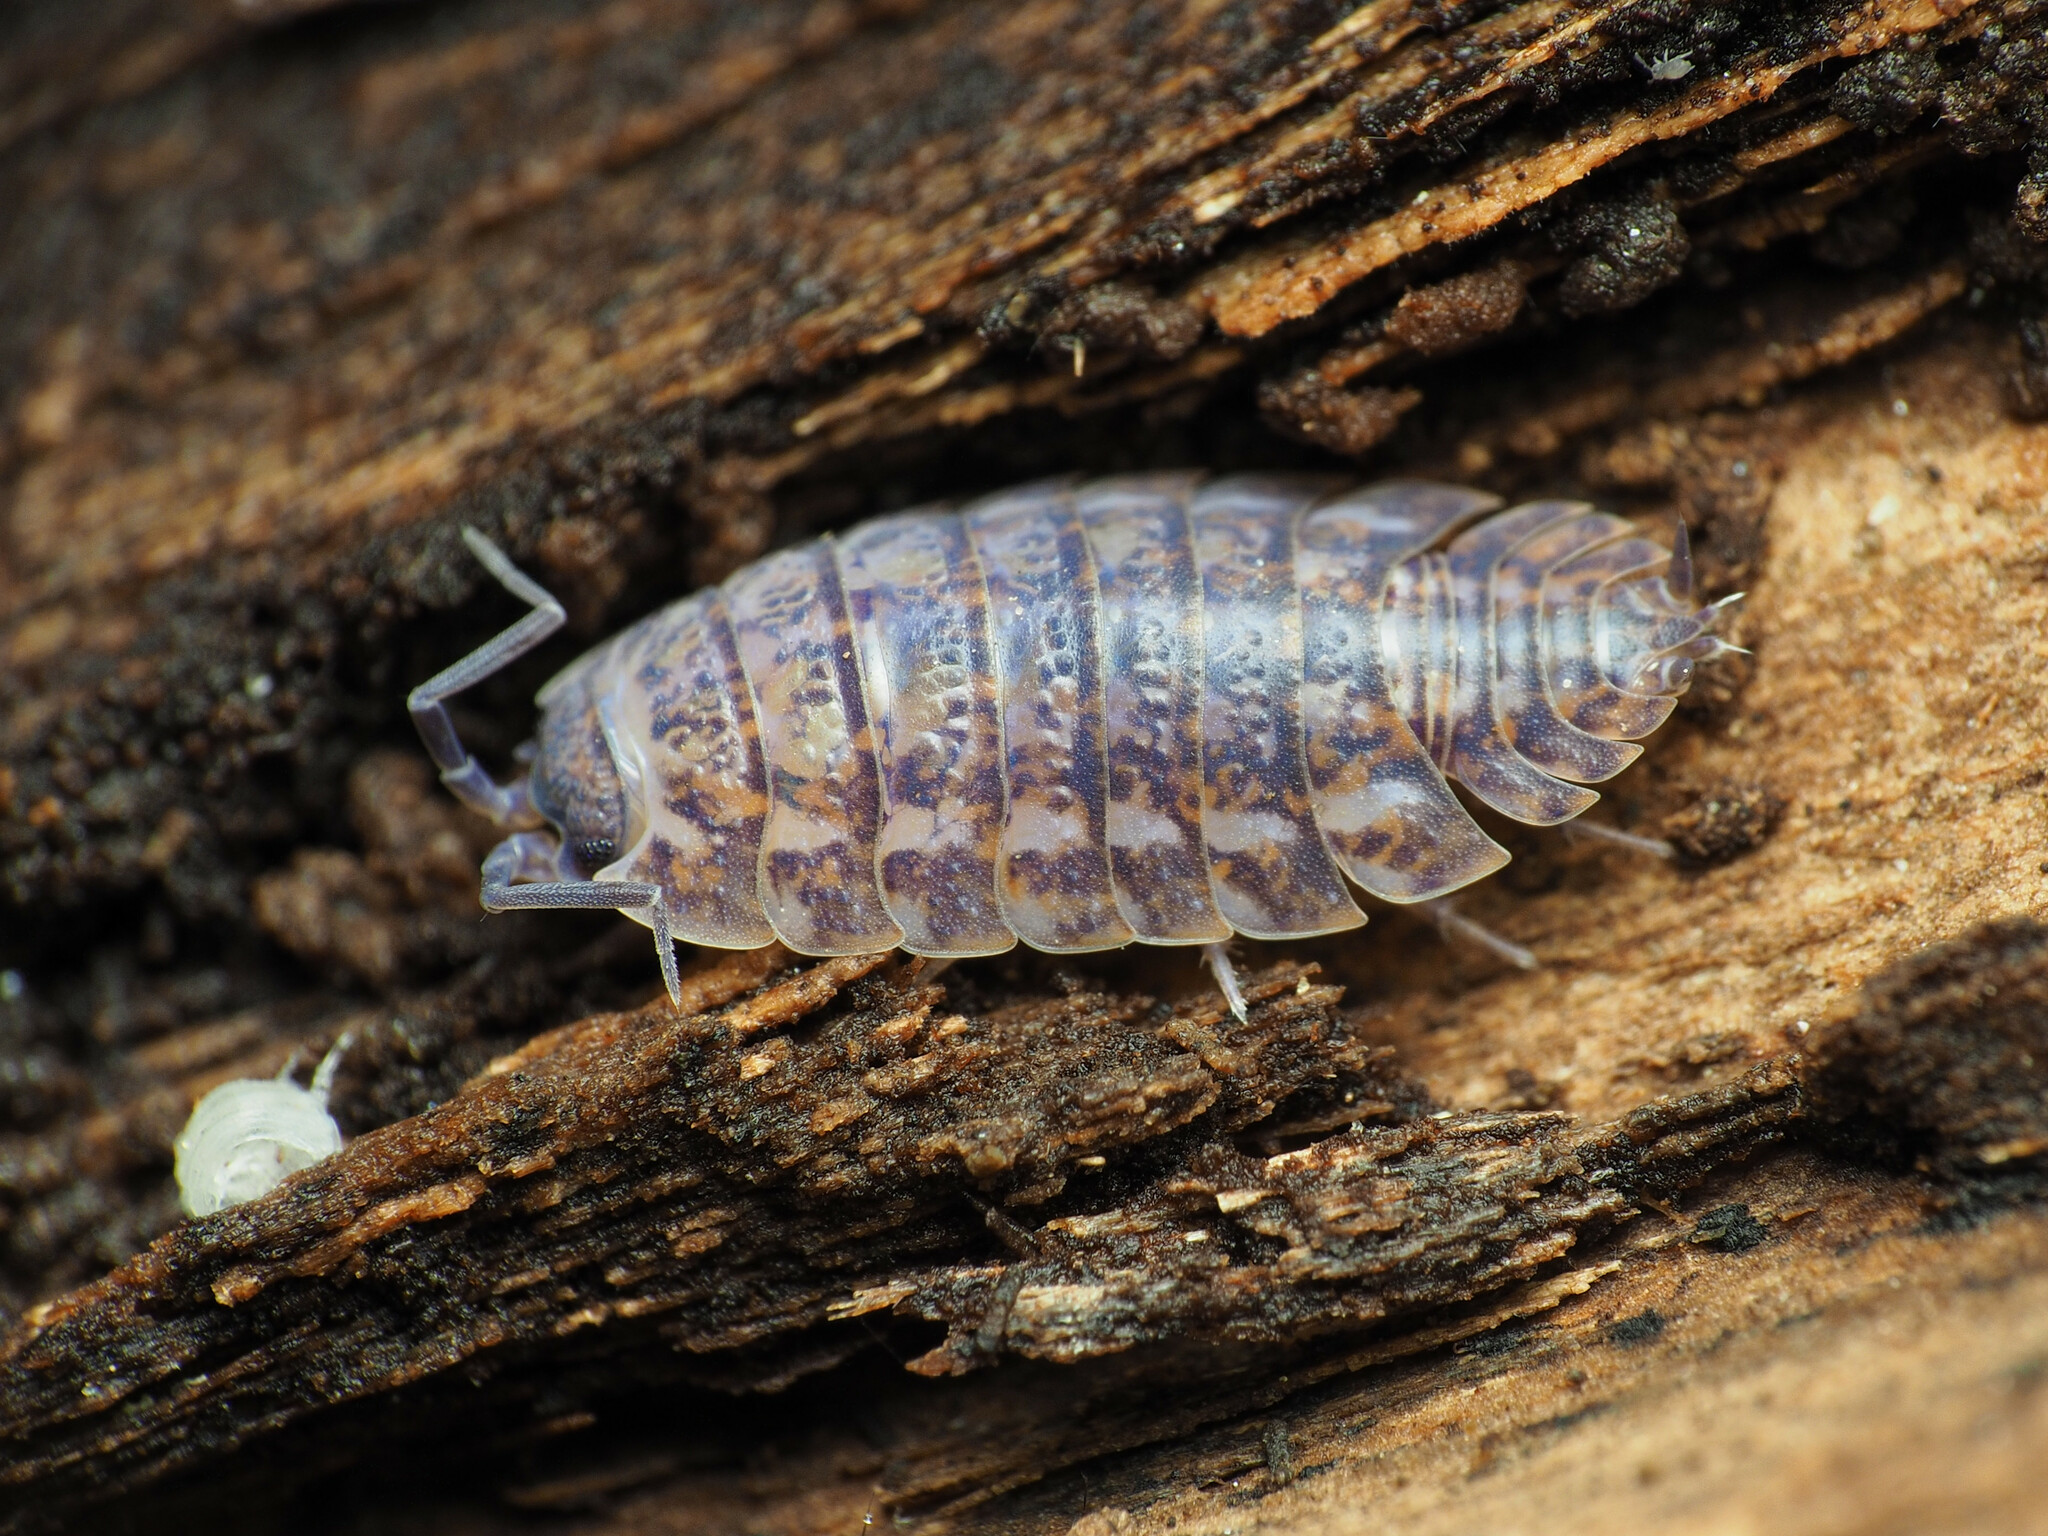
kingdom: Animalia
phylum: Arthropoda
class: Malacostraca
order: Isopoda
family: Trachelipodidae
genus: Trachelipus
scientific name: Trachelipus rathkii
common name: Isopod
